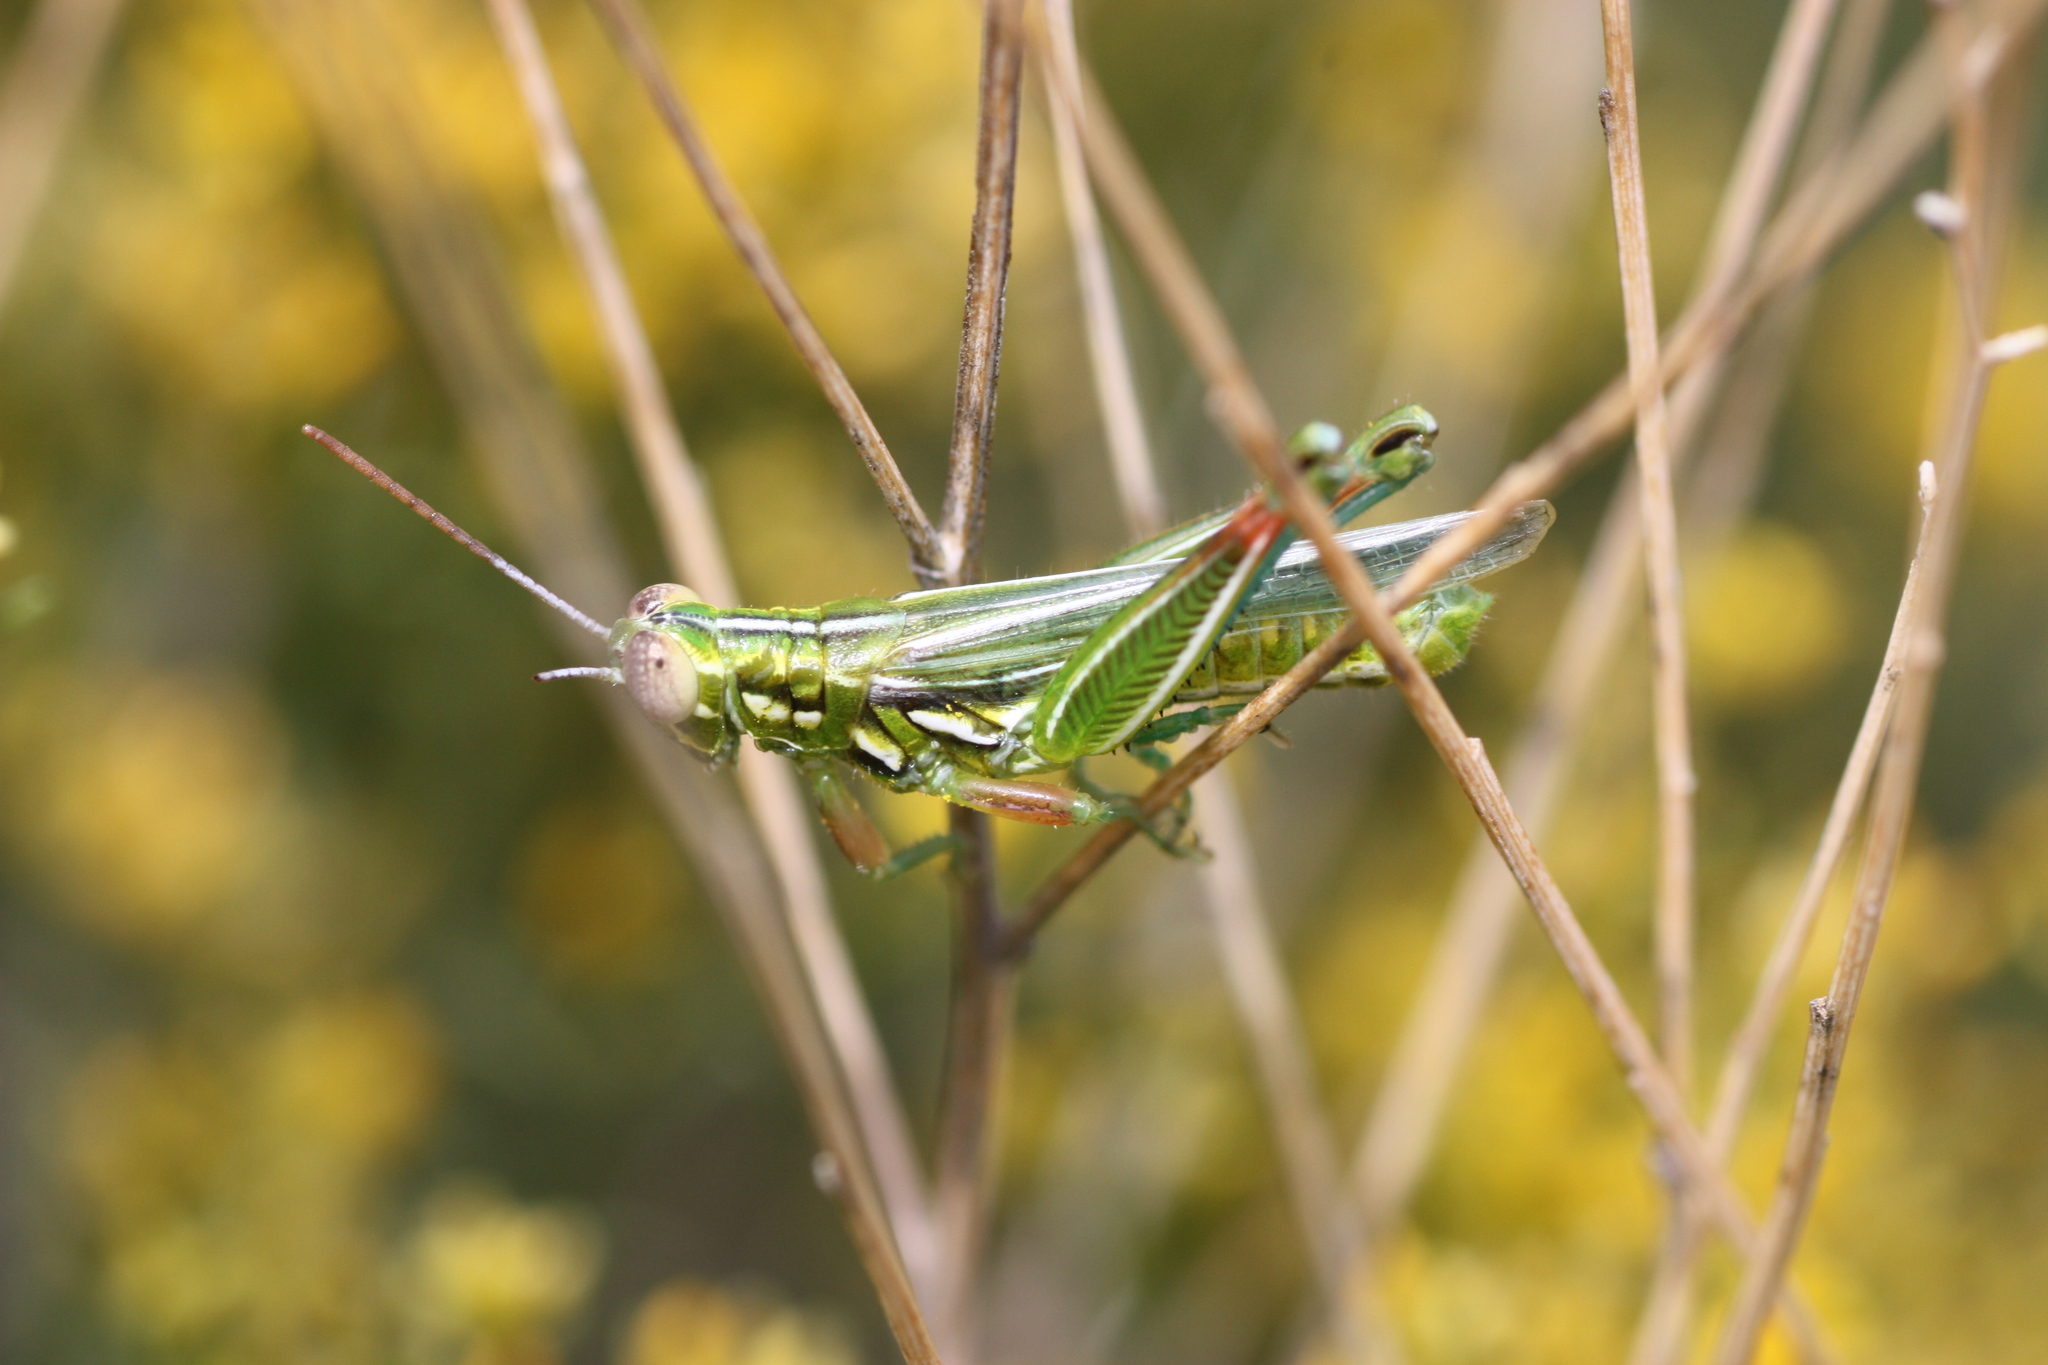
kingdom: Animalia
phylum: Arthropoda
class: Insecta
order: Orthoptera
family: Acrididae
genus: Hesperotettix
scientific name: Hesperotettix viridis
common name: Meadow purple-striped grasshopper
